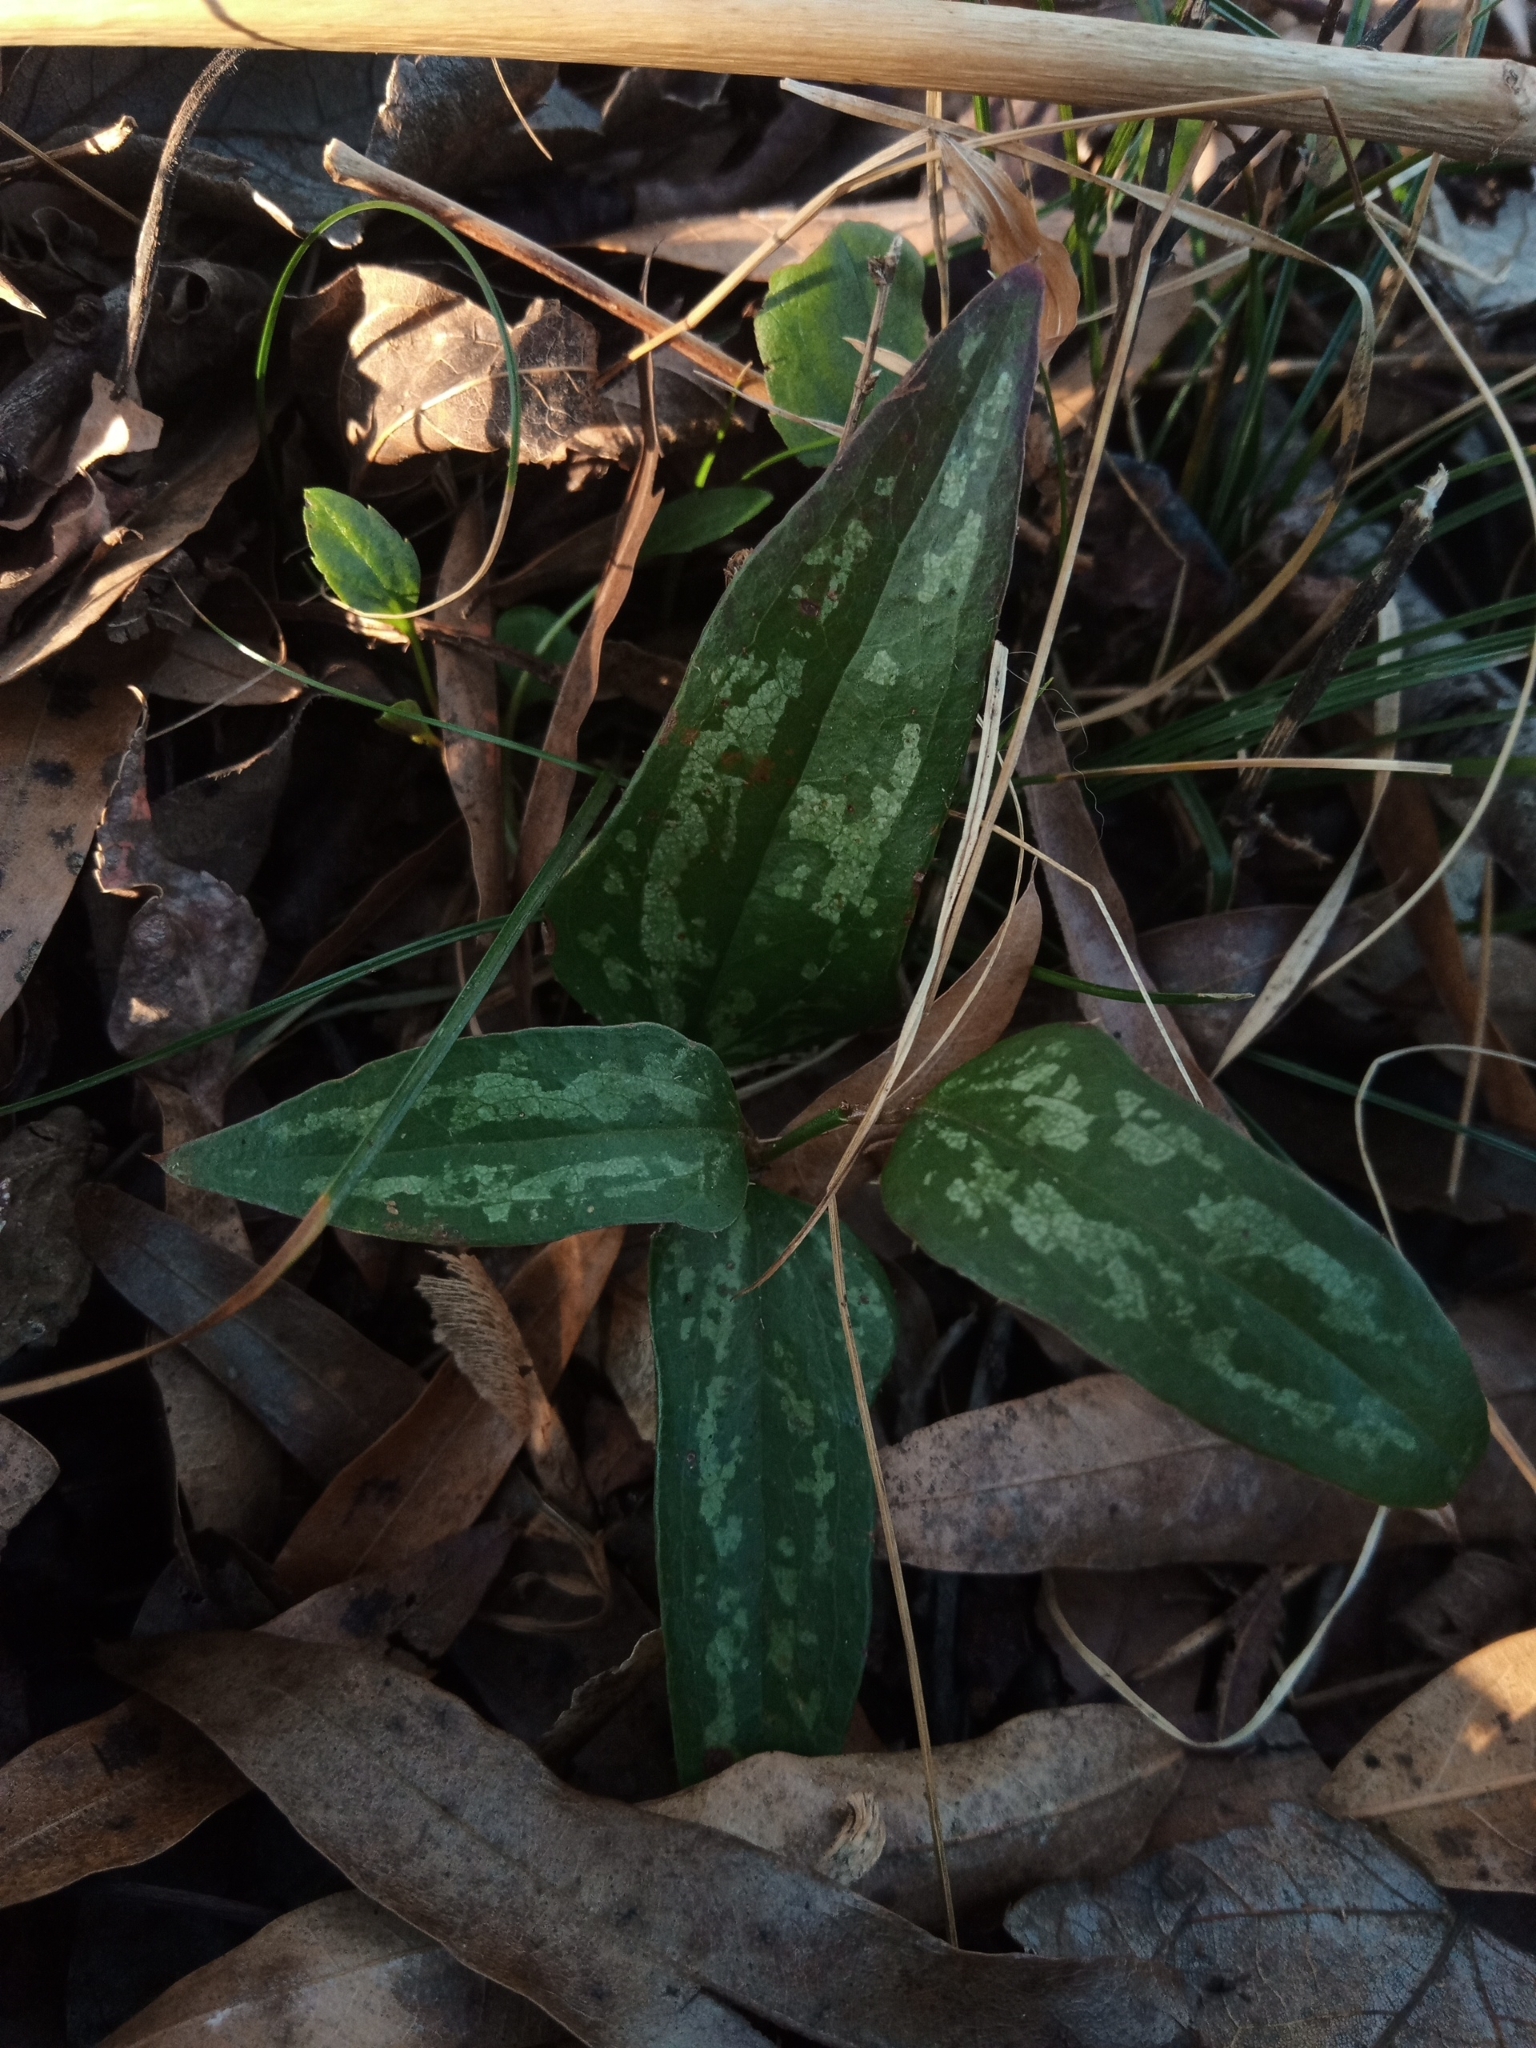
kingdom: Plantae
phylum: Tracheophyta
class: Liliopsida
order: Liliales
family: Smilacaceae
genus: Smilax
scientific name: Smilax bona-nox
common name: Catbrier
